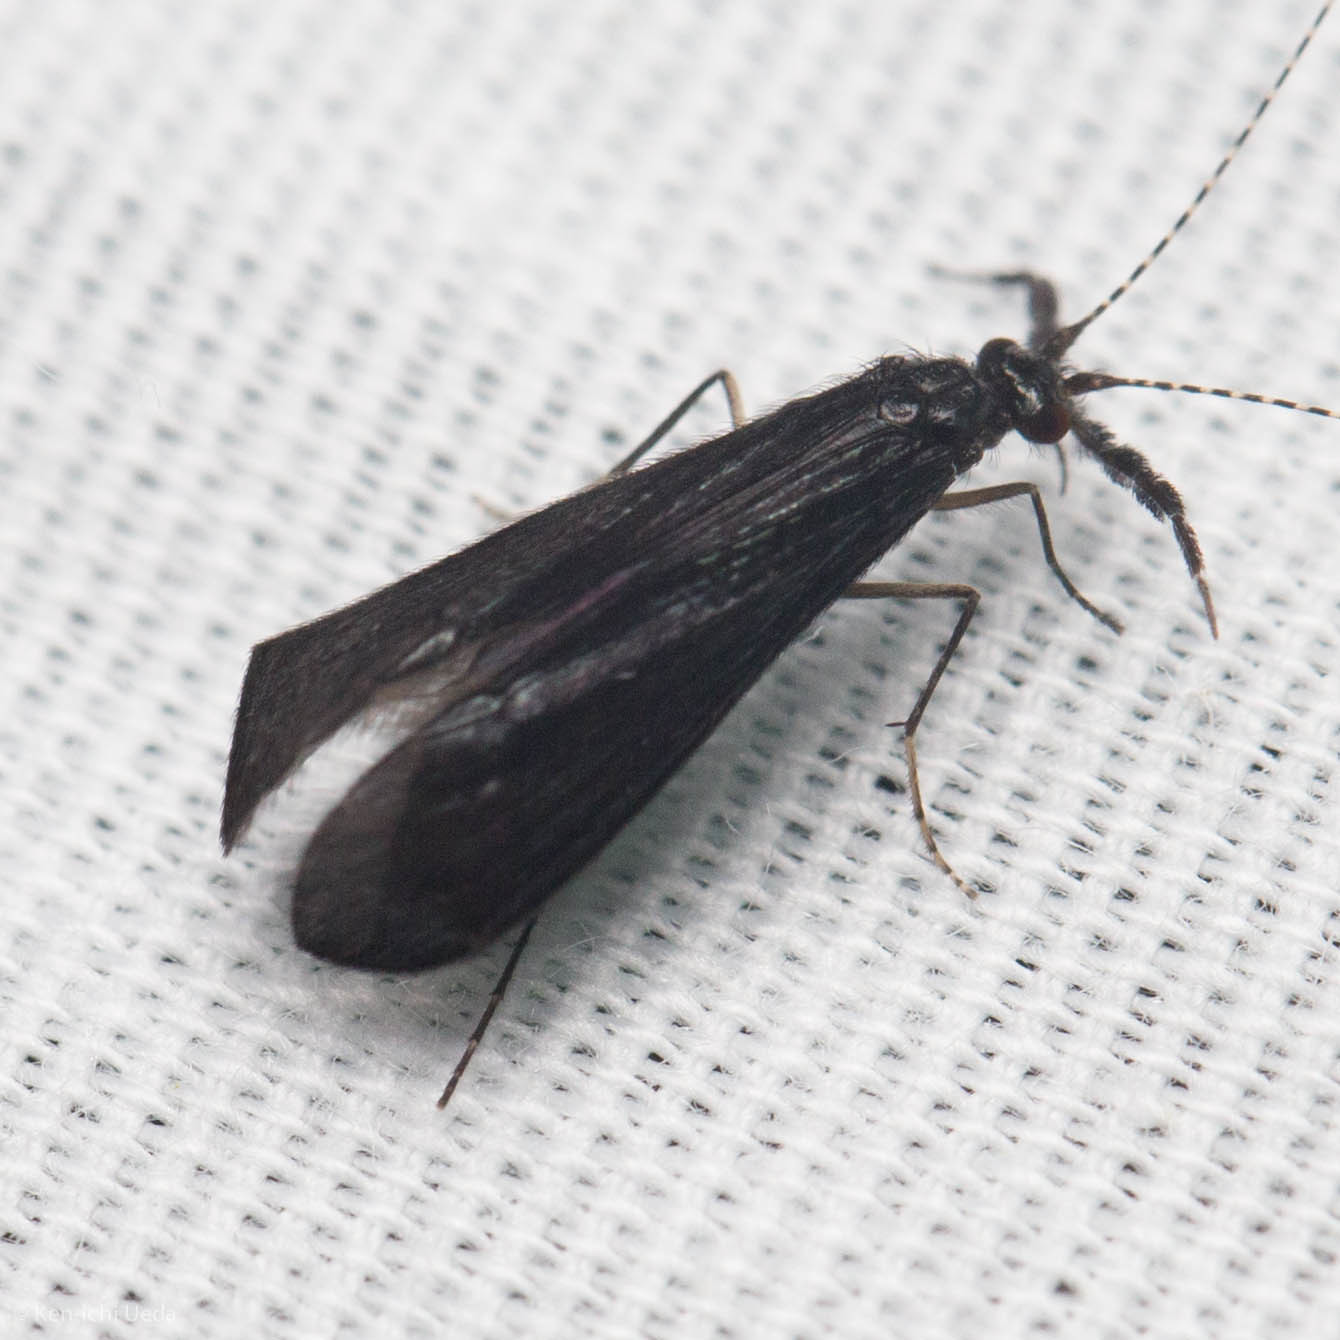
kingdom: Animalia
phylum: Arthropoda
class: Insecta
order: Trichoptera
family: Leptoceridae
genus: Mystacides
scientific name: Mystacides sepulchralis
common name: Black dancer caddisfly
